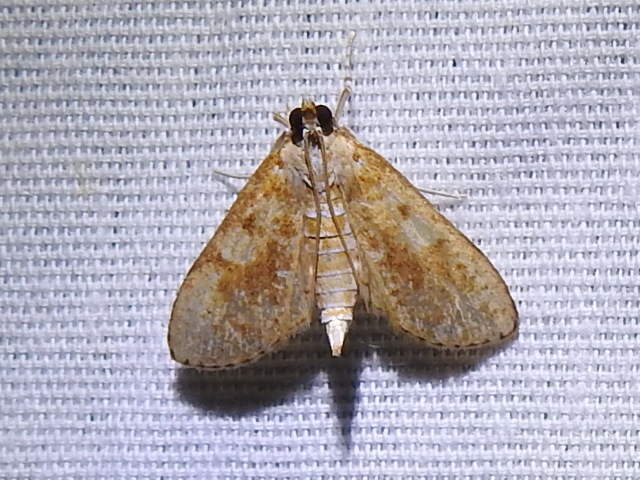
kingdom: Animalia
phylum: Arthropoda
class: Insecta
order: Lepidoptera
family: Crambidae
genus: Palpita
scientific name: Palpita freemanalis
